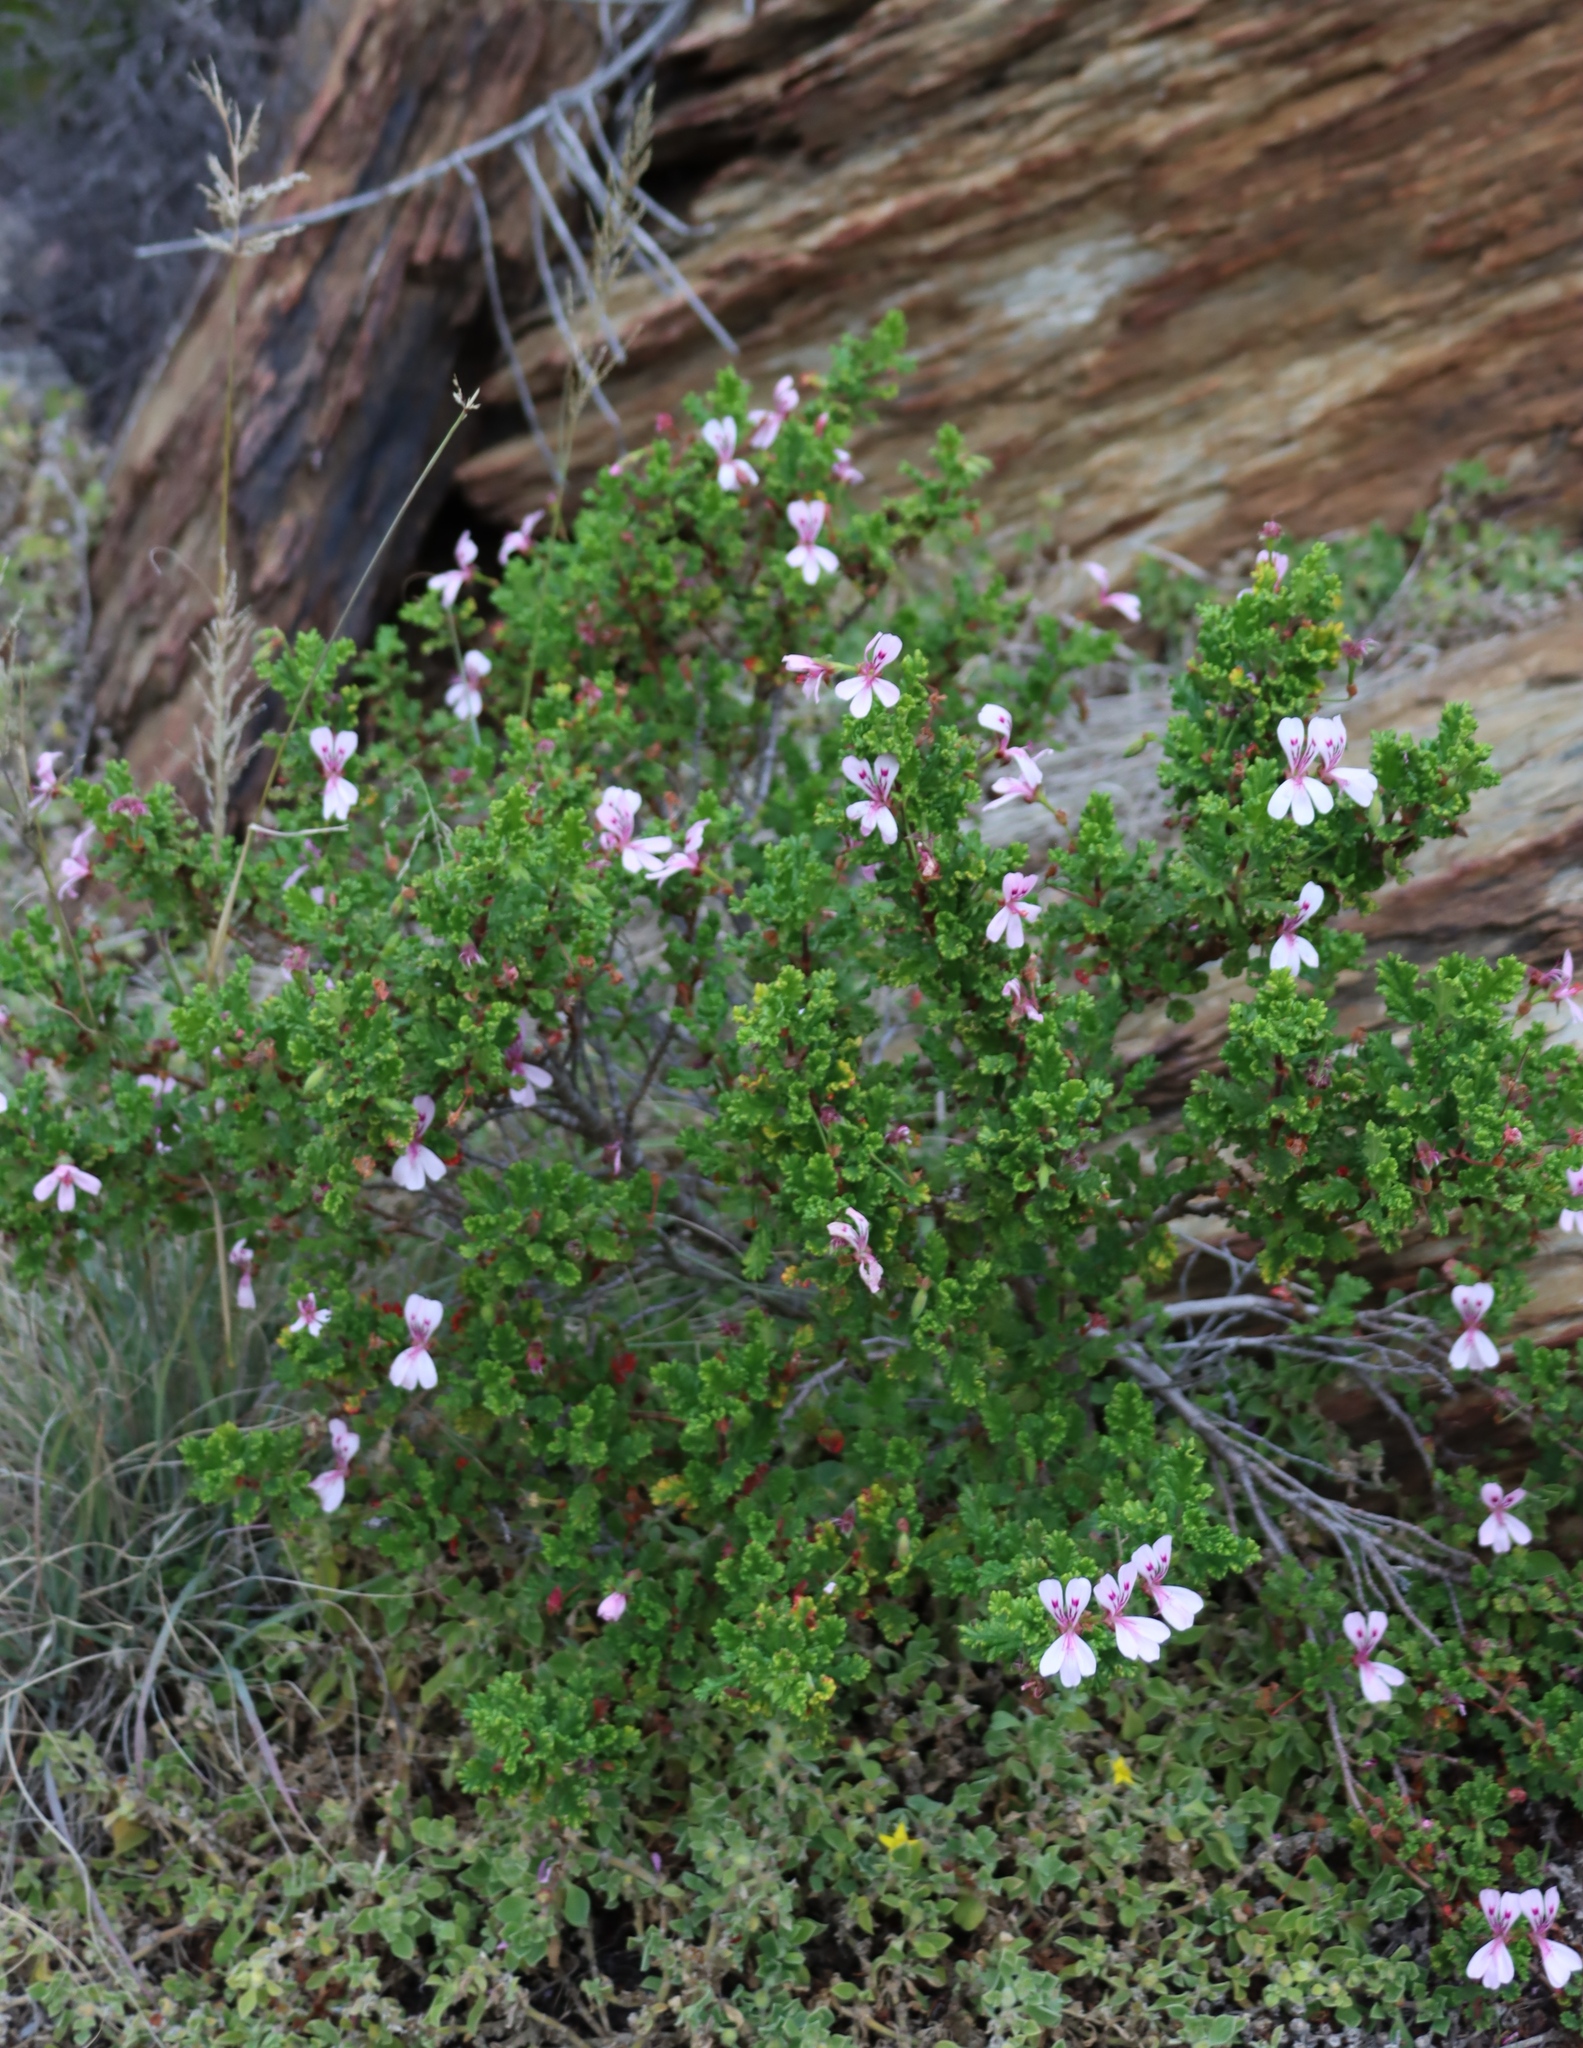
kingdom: Plantae
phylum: Tracheophyta
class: Magnoliopsida
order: Geraniales
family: Geraniaceae
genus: Pelargonium
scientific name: Pelargonium panduriforme
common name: Oakleaf garden geranium
